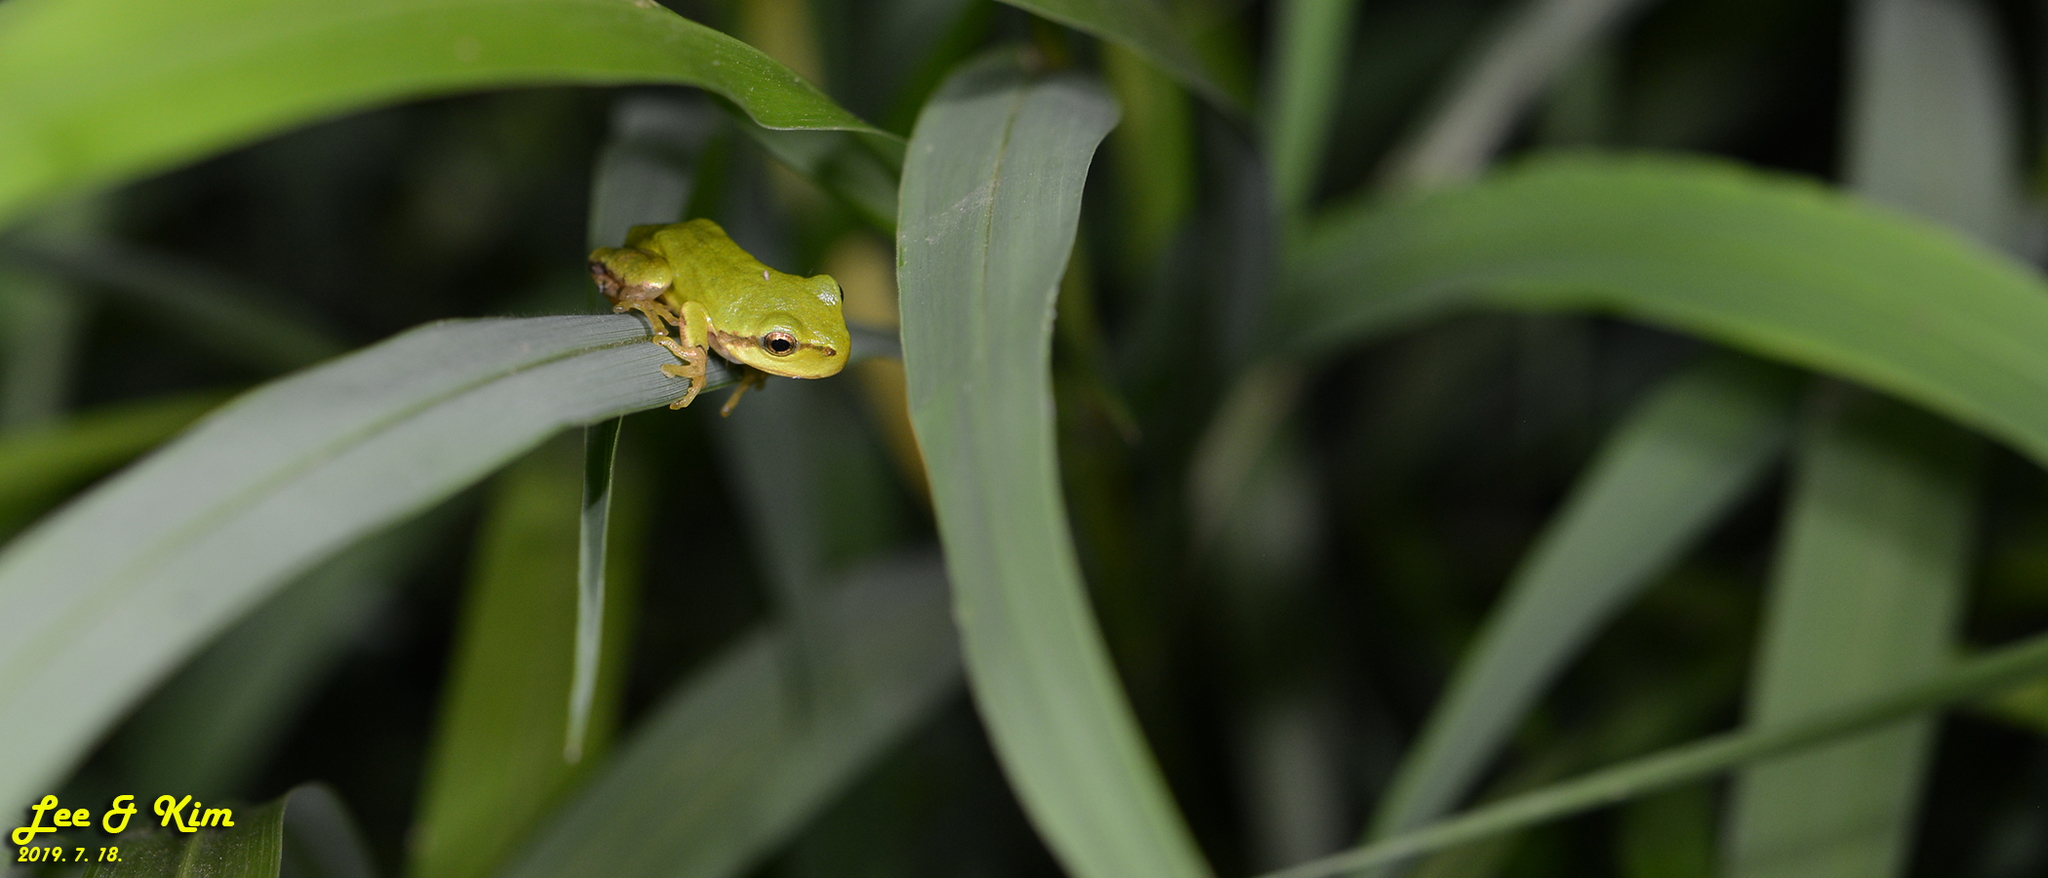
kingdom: Animalia
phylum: Chordata
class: Amphibia
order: Anura
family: Hylidae
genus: Dryophytes
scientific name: Dryophytes japonicus
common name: Japanese treefrog
